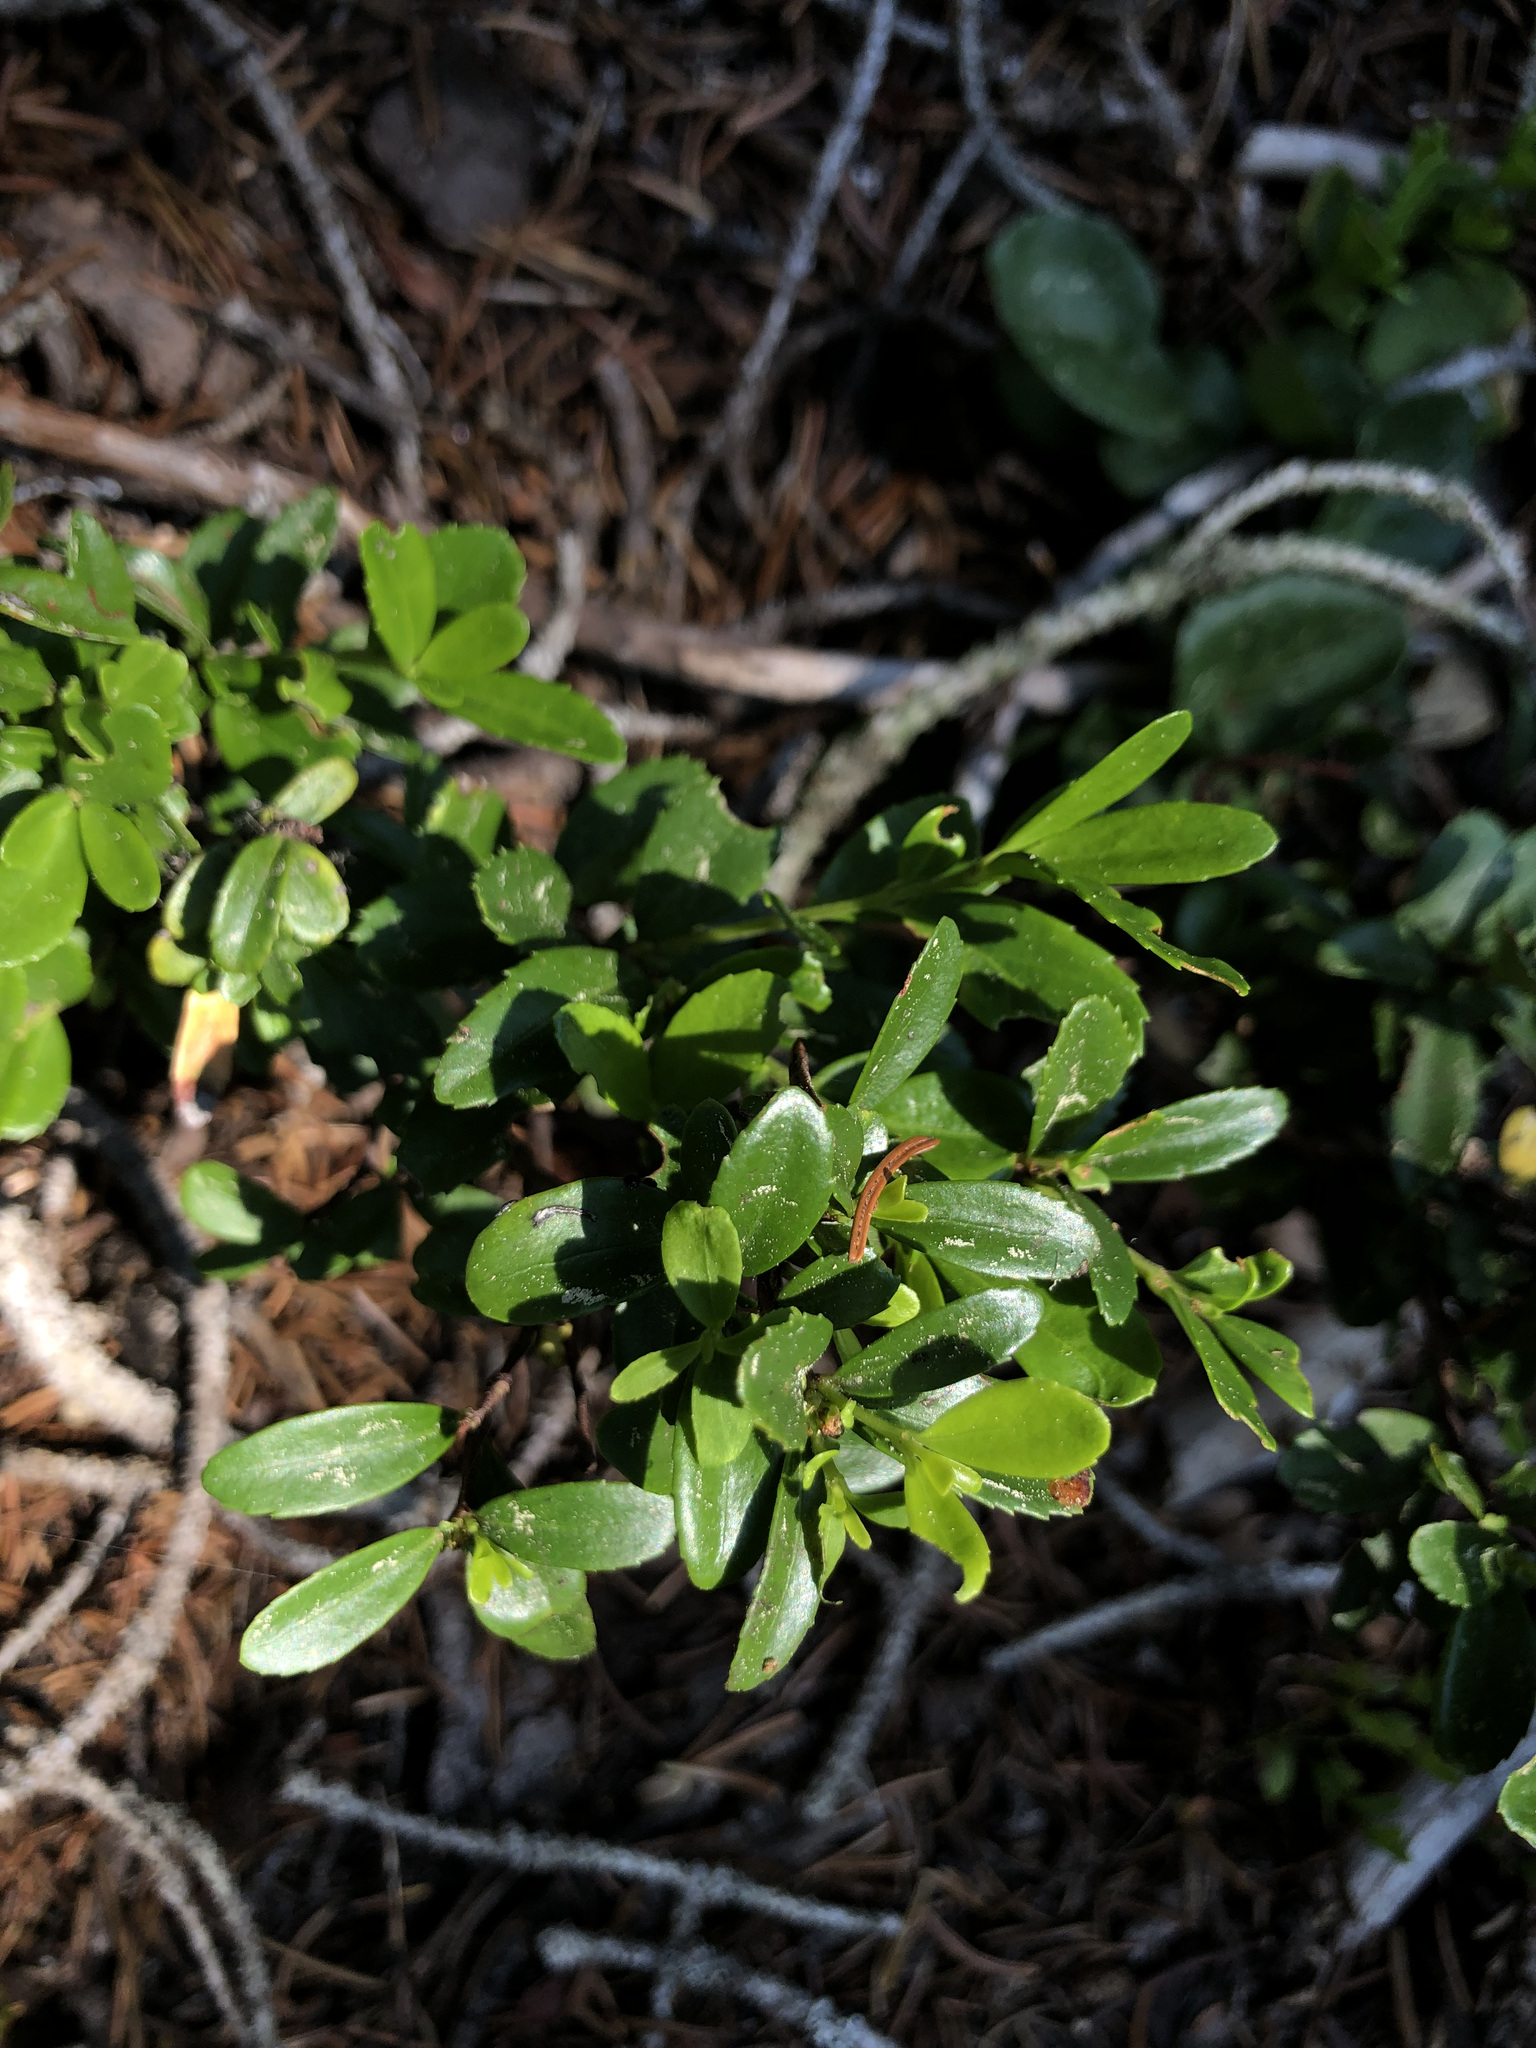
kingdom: Plantae
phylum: Tracheophyta
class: Magnoliopsida
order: Celastrales
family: Celastraceae
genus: Paxistima
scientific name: Paxistima myrsinites
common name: Mountain-lover
